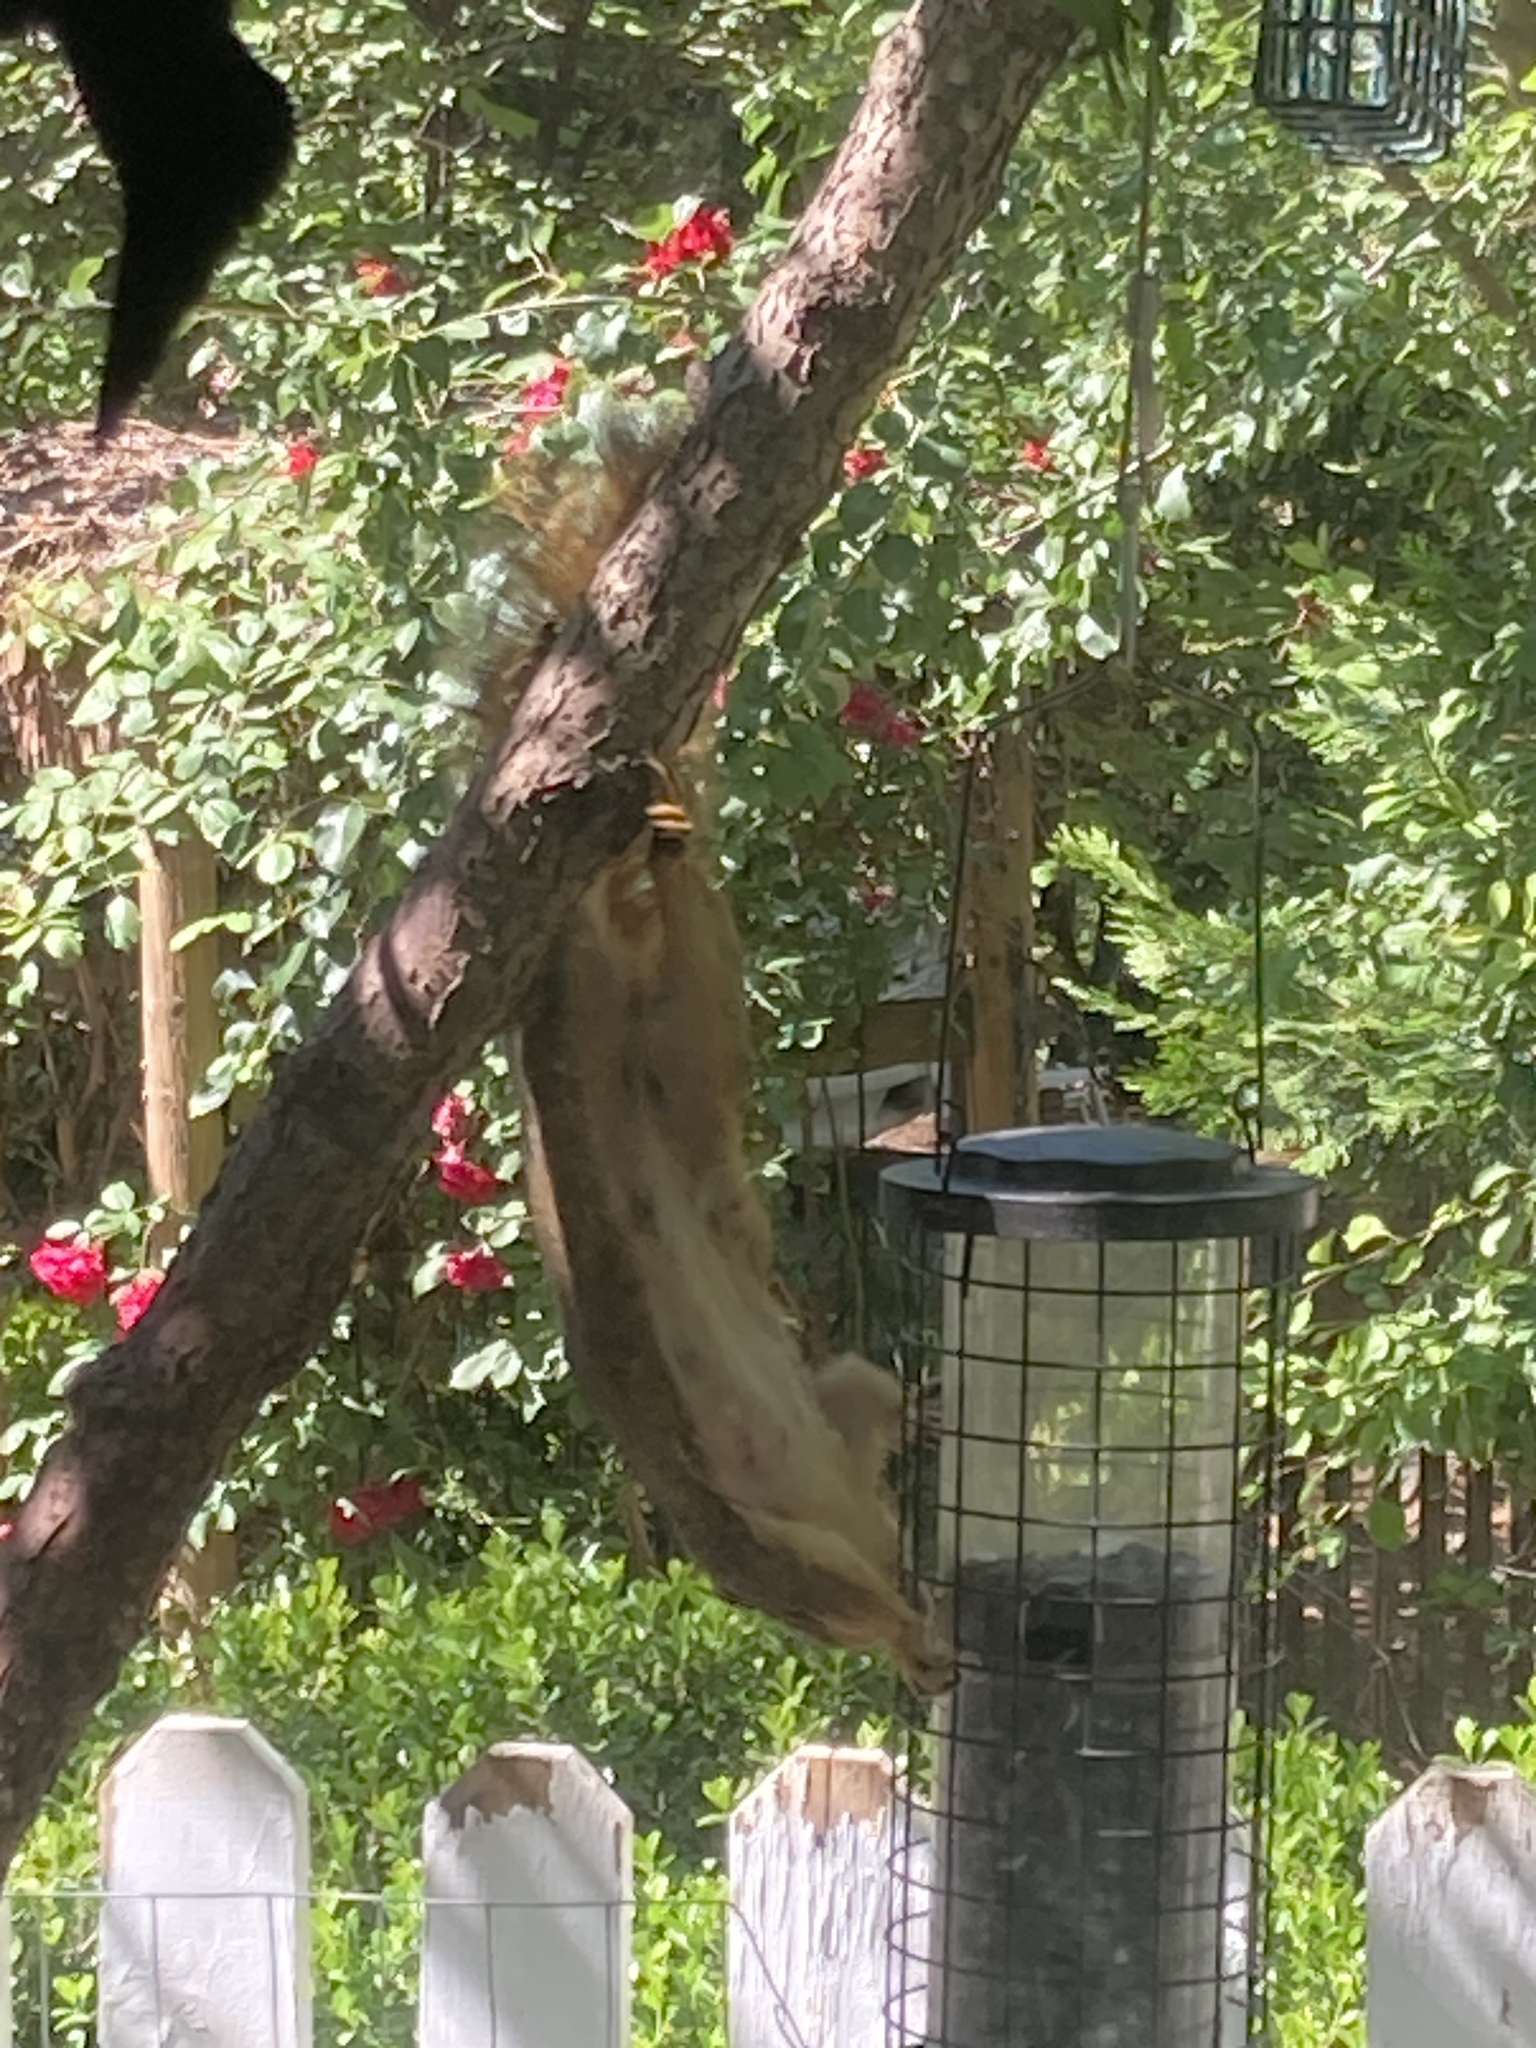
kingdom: Animalia
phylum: Chordata
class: Mammalia
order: Rodentia
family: Sciuridae
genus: Sciurus
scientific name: Sciurus niger
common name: Fox squirrel
